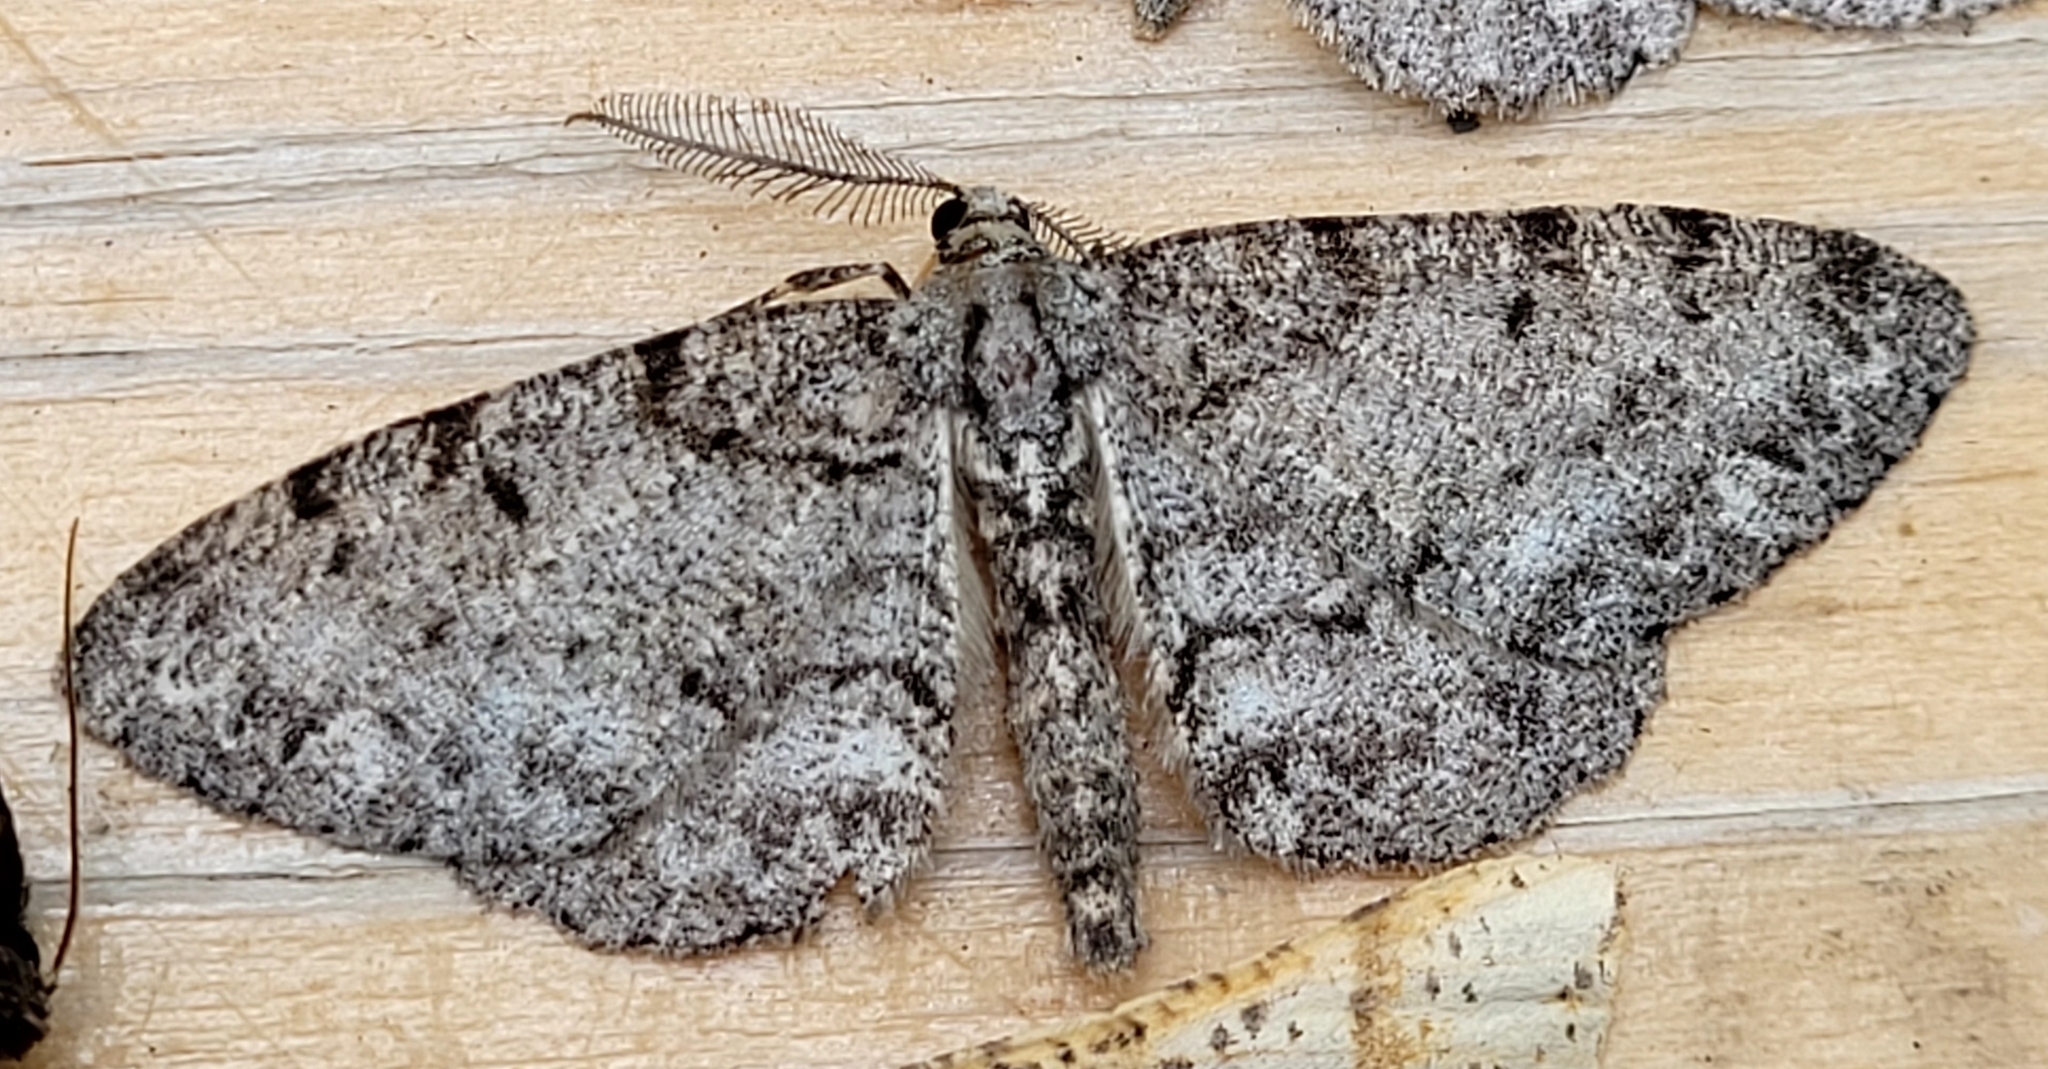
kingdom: Animalia
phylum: Arthropoda
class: Insecta
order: Lepidoptera
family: Geometridae
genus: Protoboarmia
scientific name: Protoboarmia porcelaria
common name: Porcelain gray
